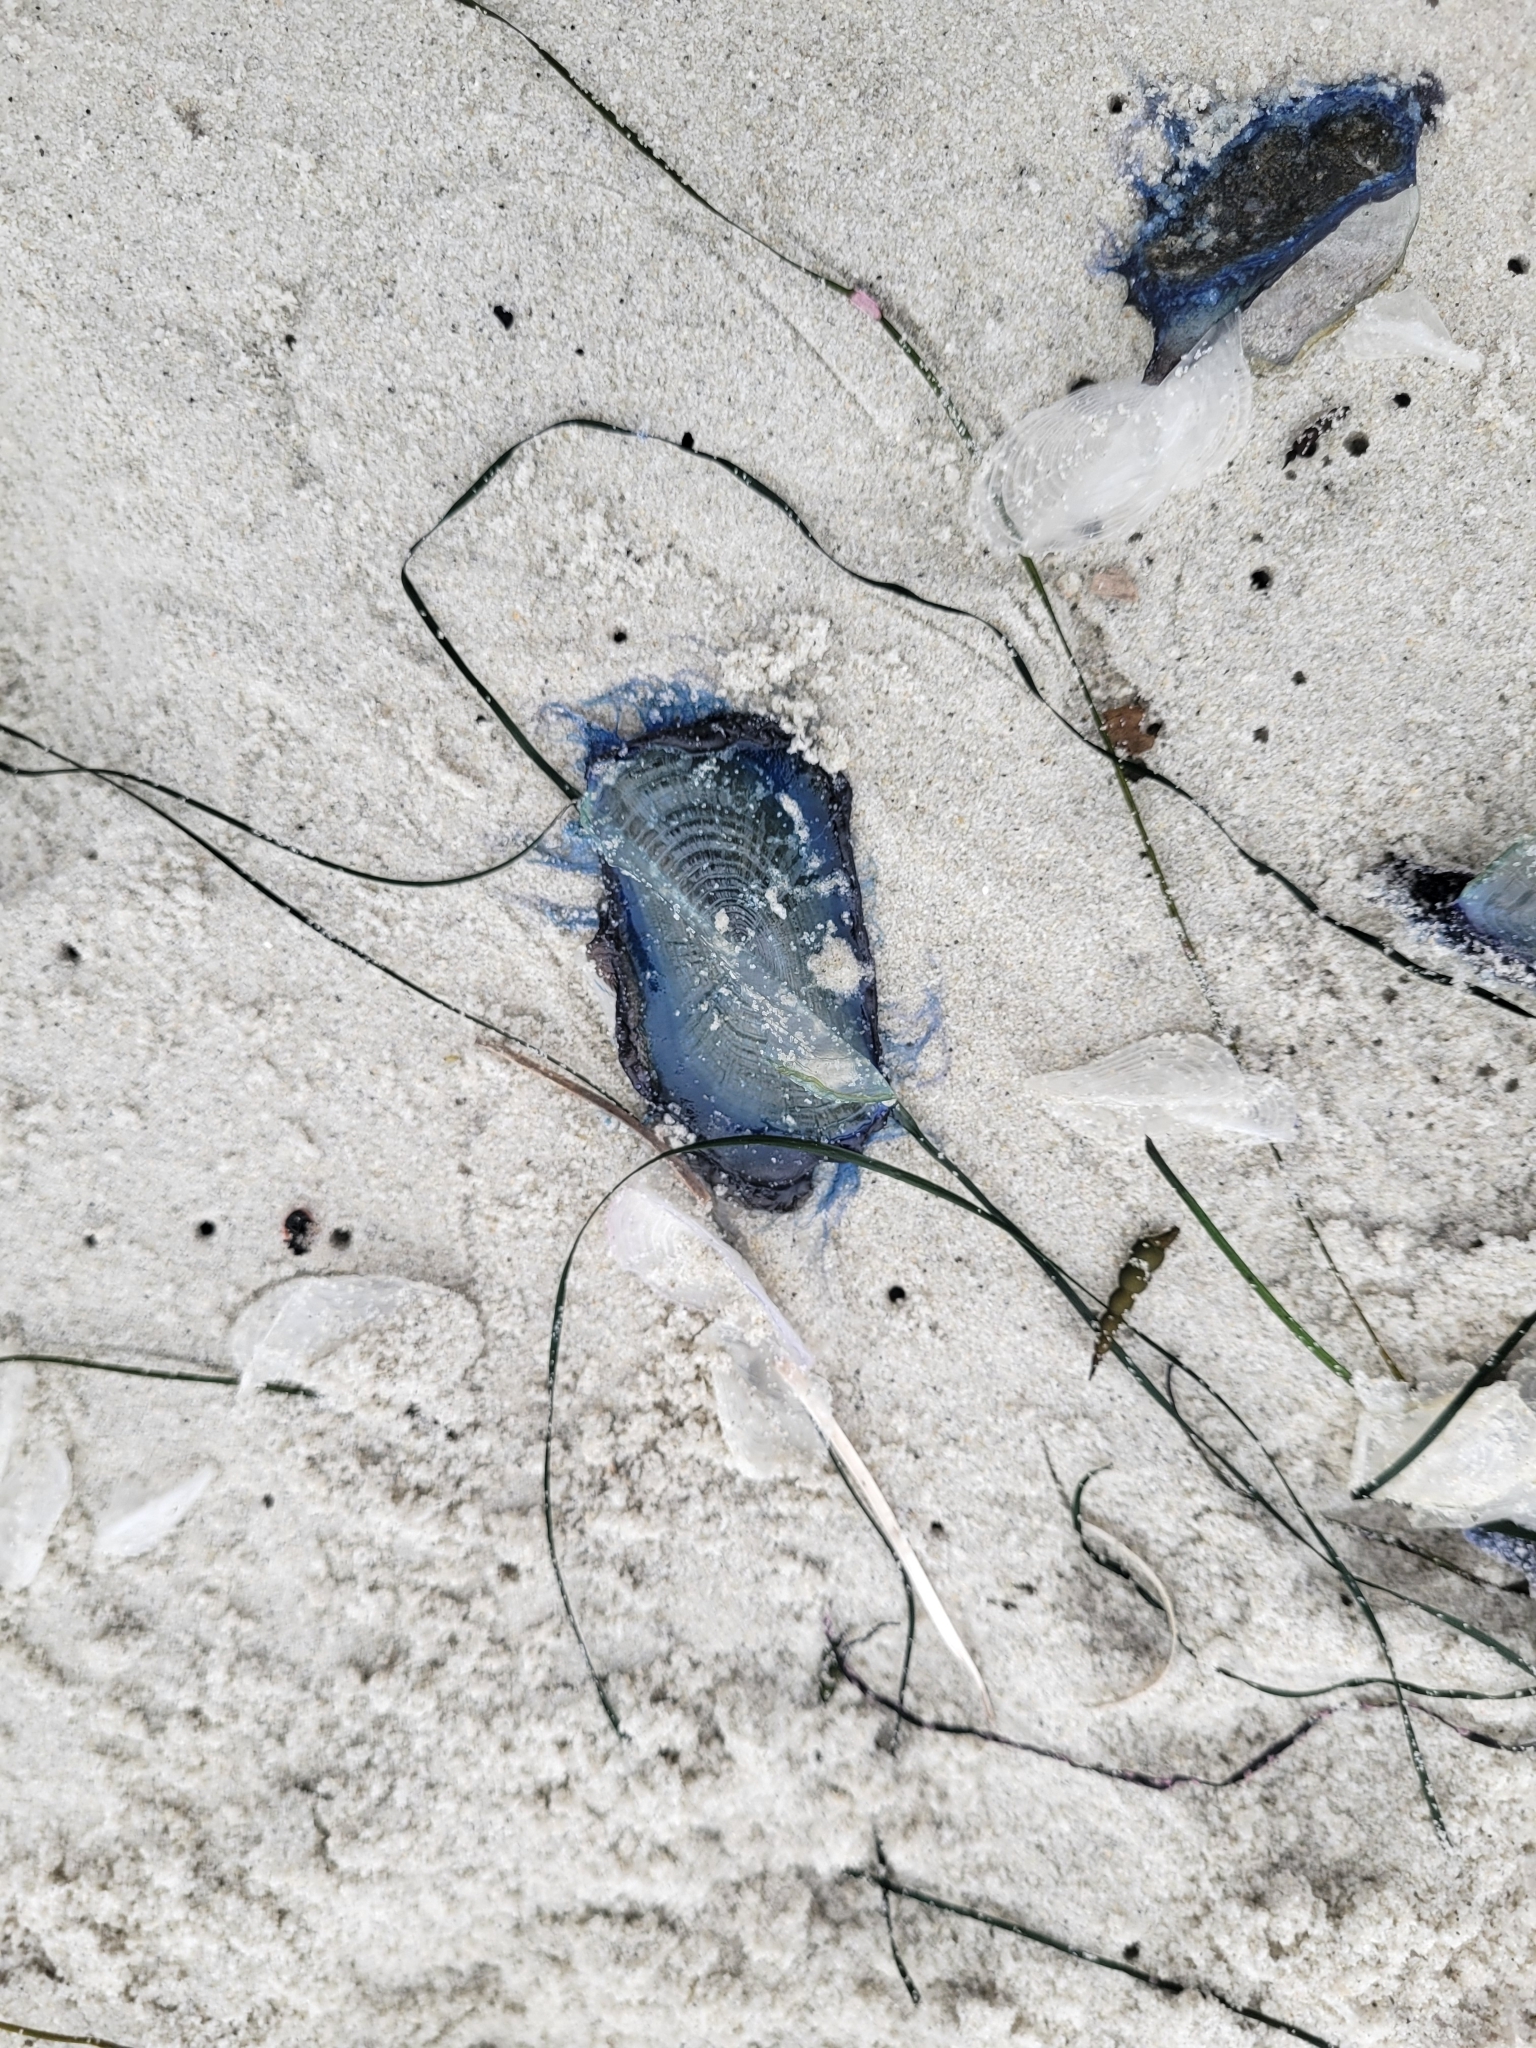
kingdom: Animalia
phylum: Cnidaria
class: Hydrozoa
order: Anthoathecata
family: Porpitidae
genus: Velella
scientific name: Velella velella
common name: By-the-wind-sailor
